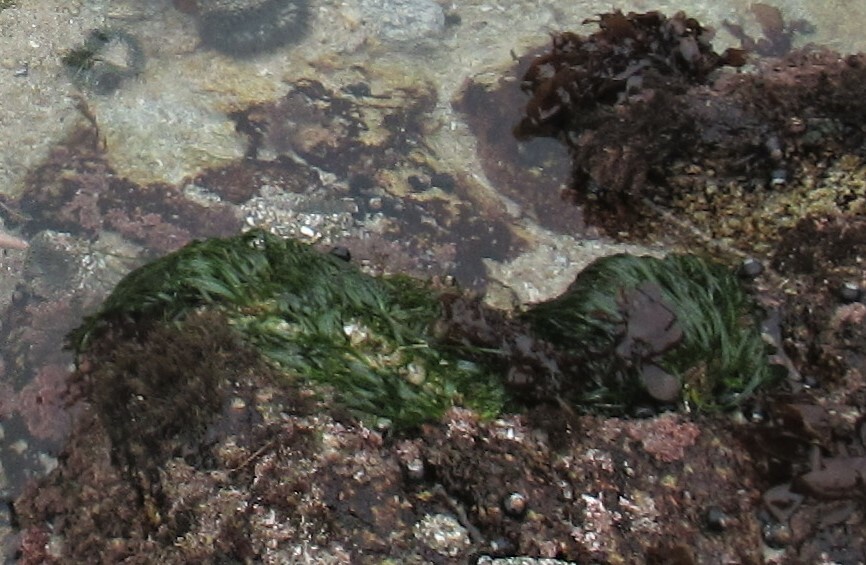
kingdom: Plantae
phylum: Tracheophyta
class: Liliopsida
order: Alismatales
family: Zosteraceae
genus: Phyllospadix
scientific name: Phyllospadix scouleri
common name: Species code: ps
